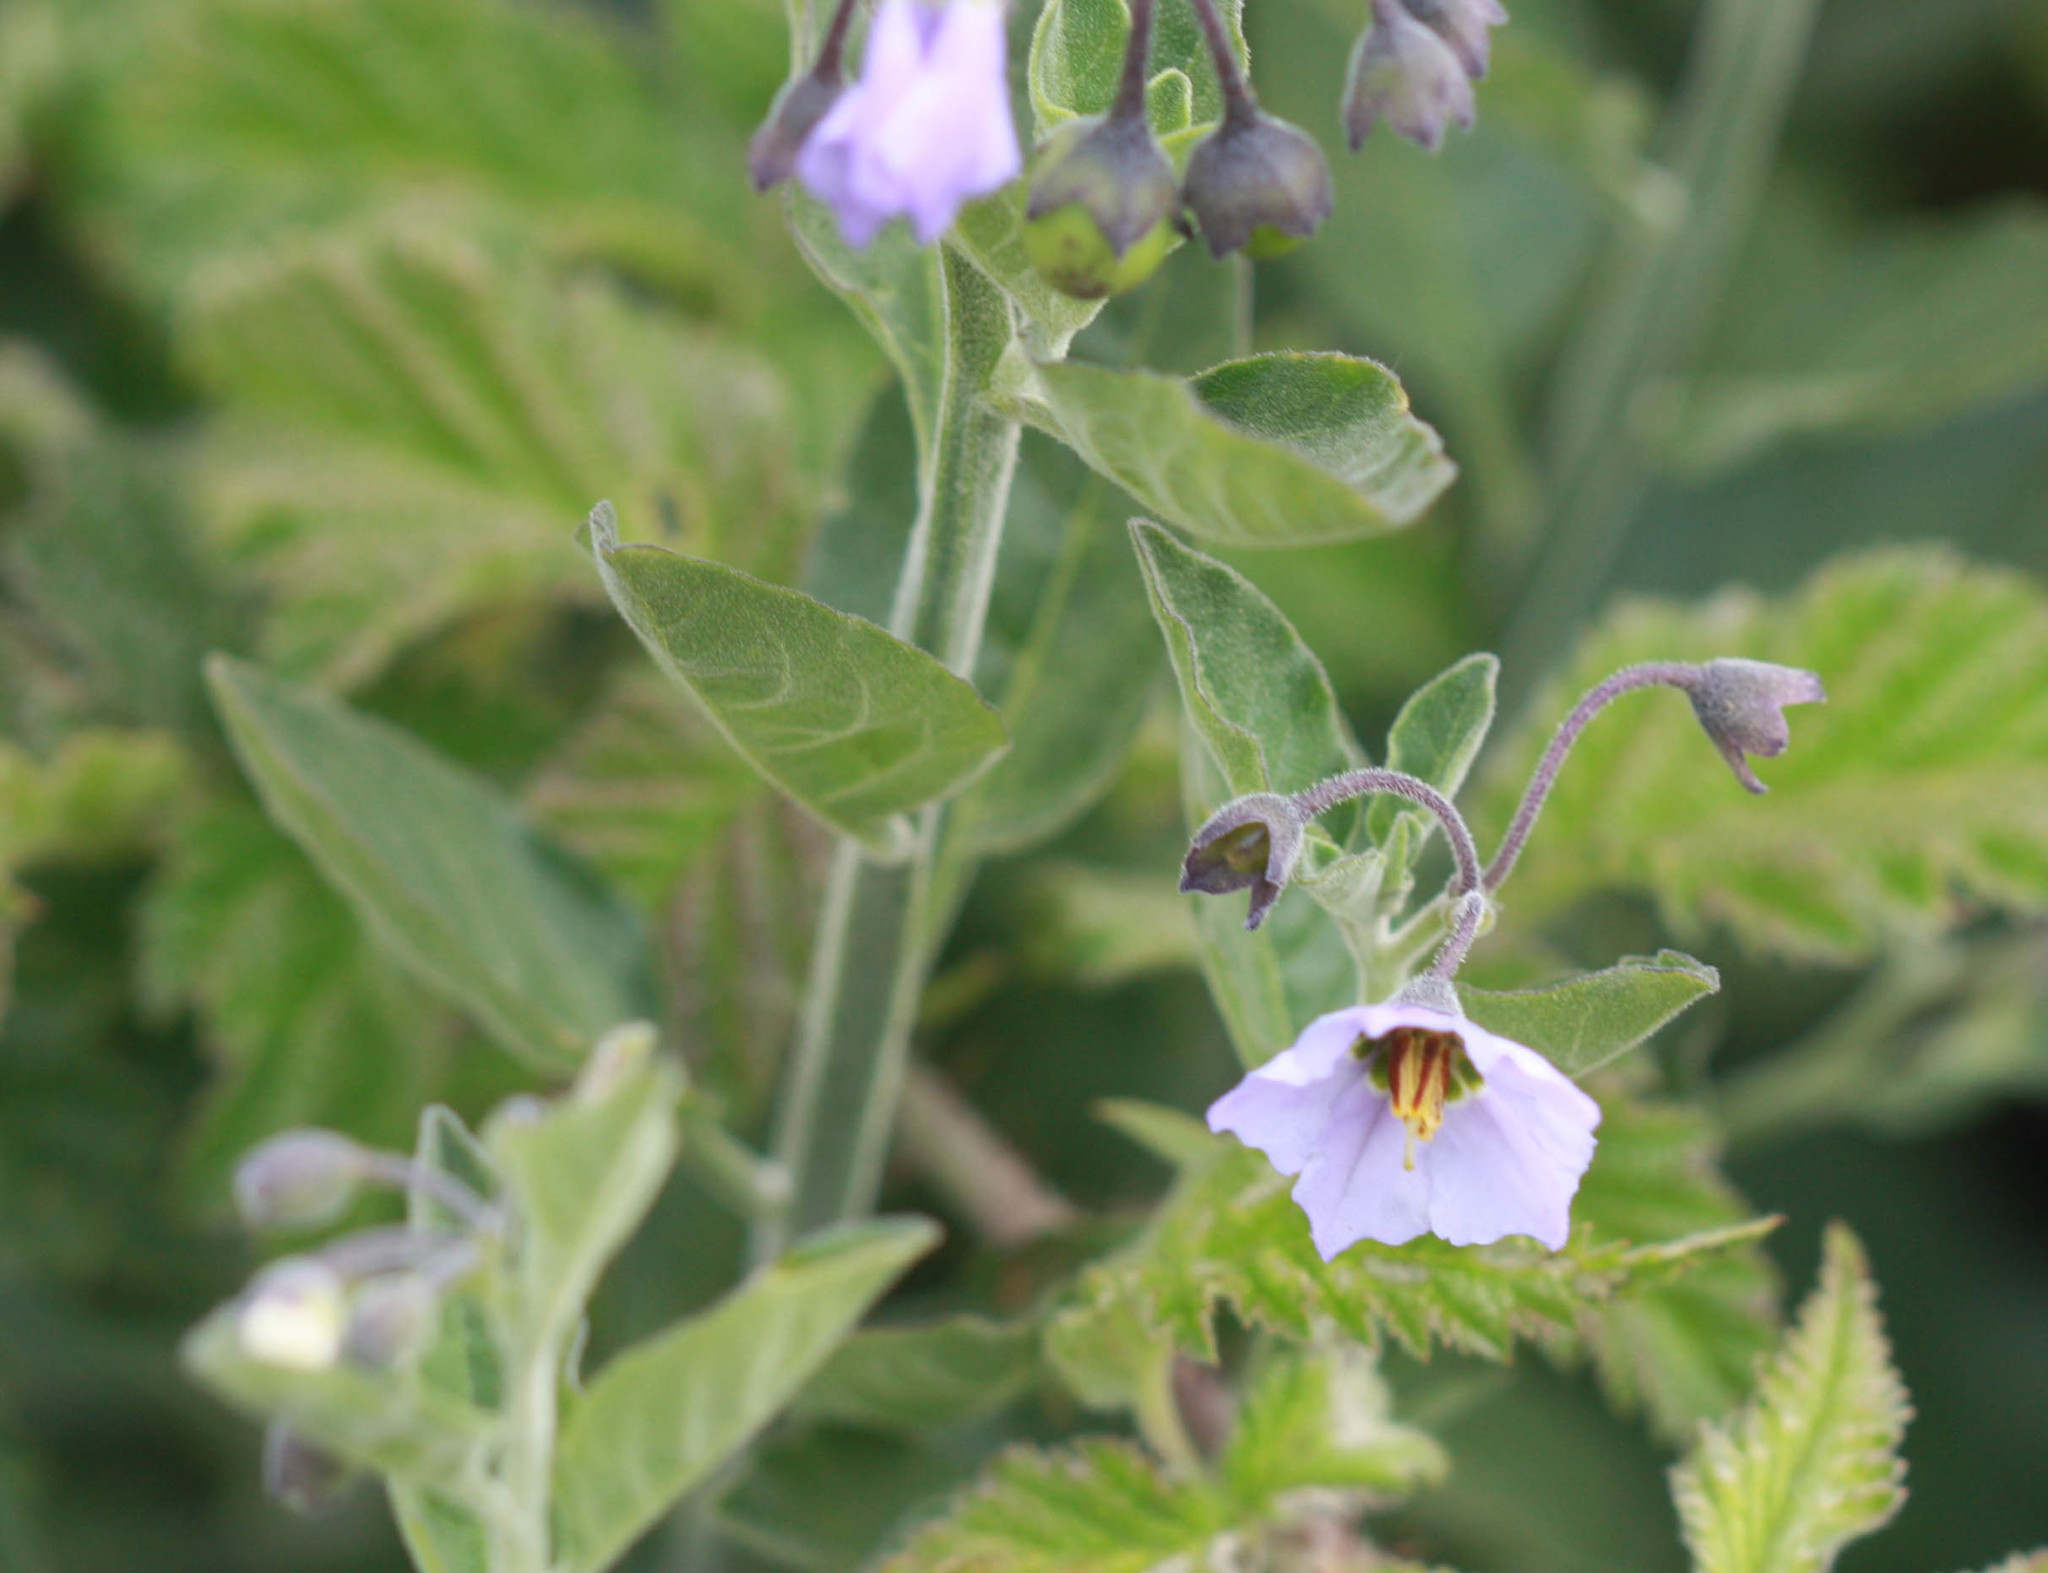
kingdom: Plantae
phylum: Tracheophyta
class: Magnoliopsida
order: Solanales
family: Solanaceae
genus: Solanum
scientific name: Solanum umbelliferum
